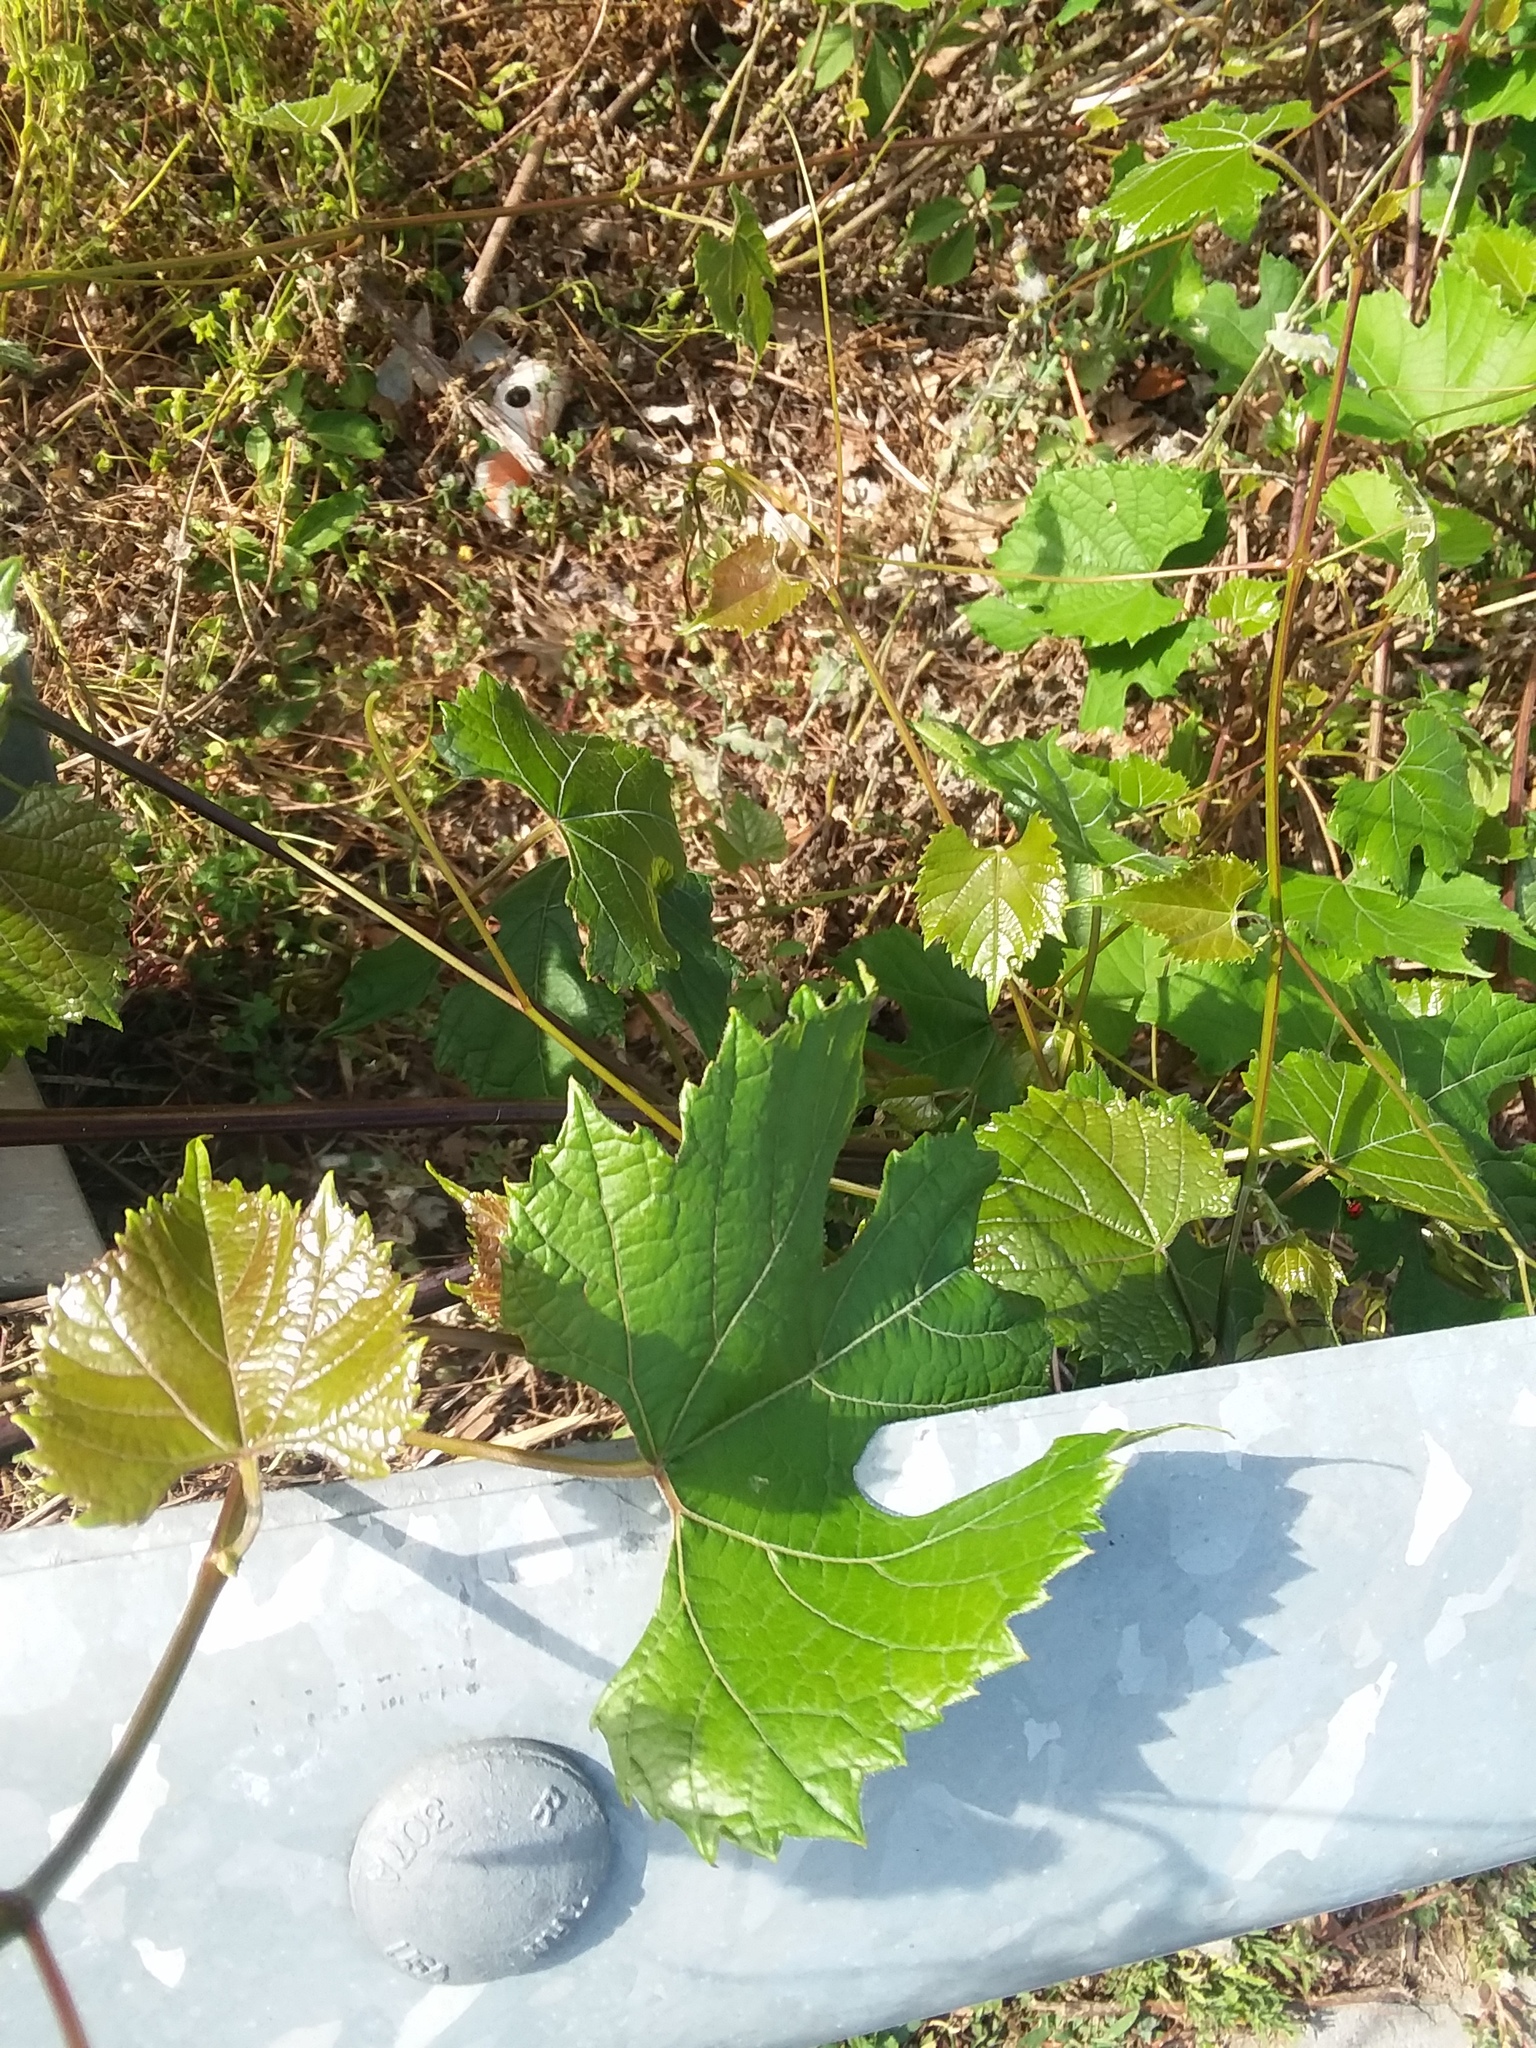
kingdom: Plantae
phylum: Tracheophyta
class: Magnoliopsida
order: Vitales
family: Vitaceae
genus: Vitis
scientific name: Vitis aestivalis
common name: Pigeon grape
